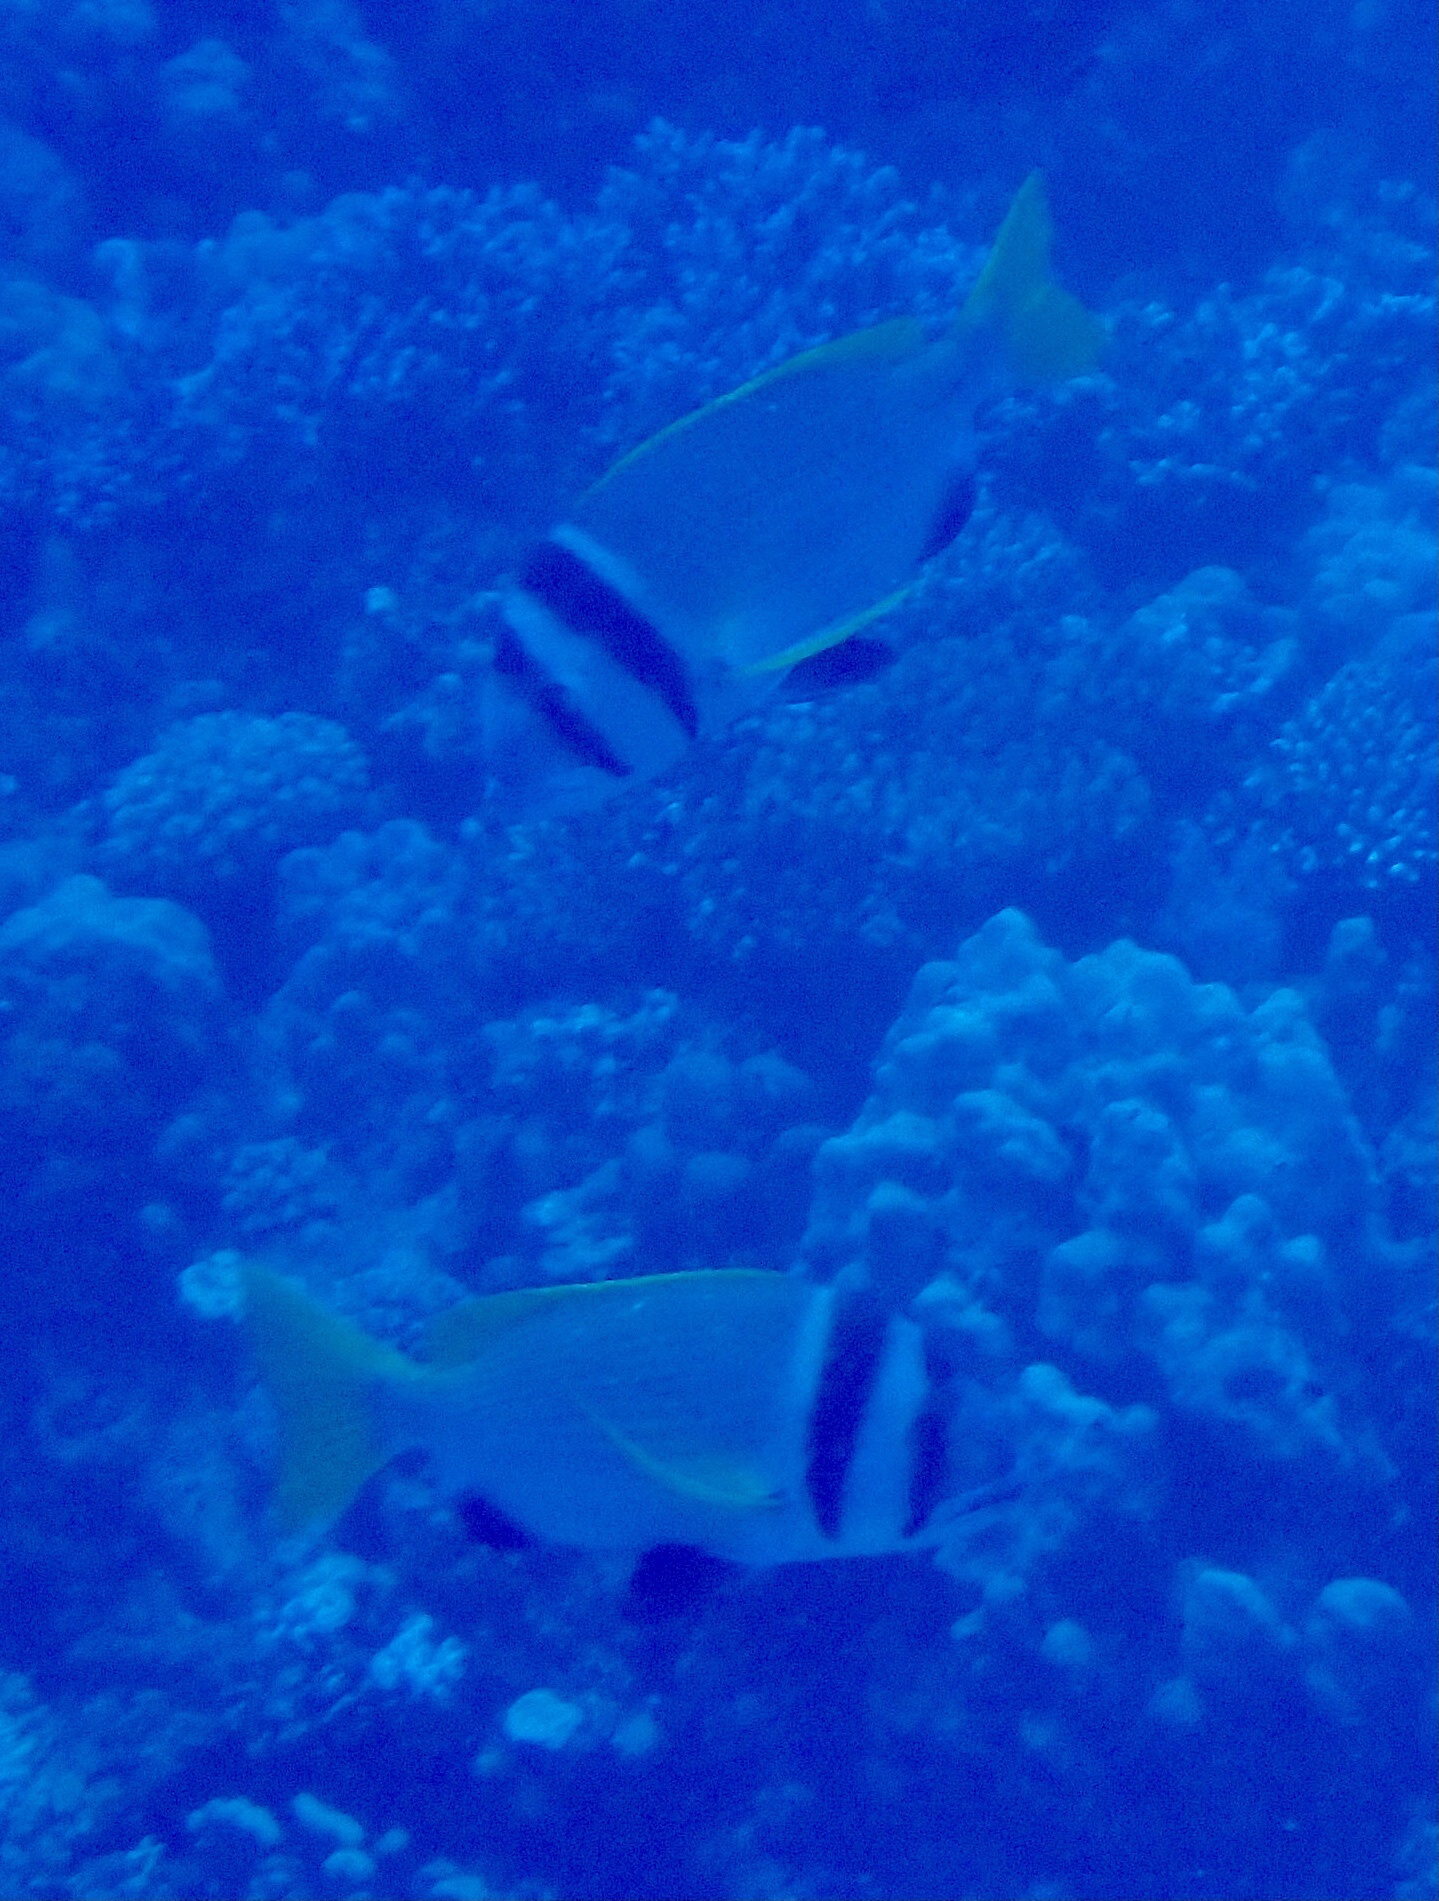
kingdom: Animalia
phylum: Chordata
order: Perciformes
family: Sparidae
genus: Acanthopagrus
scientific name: Acanthopagrus bifasciatus
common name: Twobar seabream
